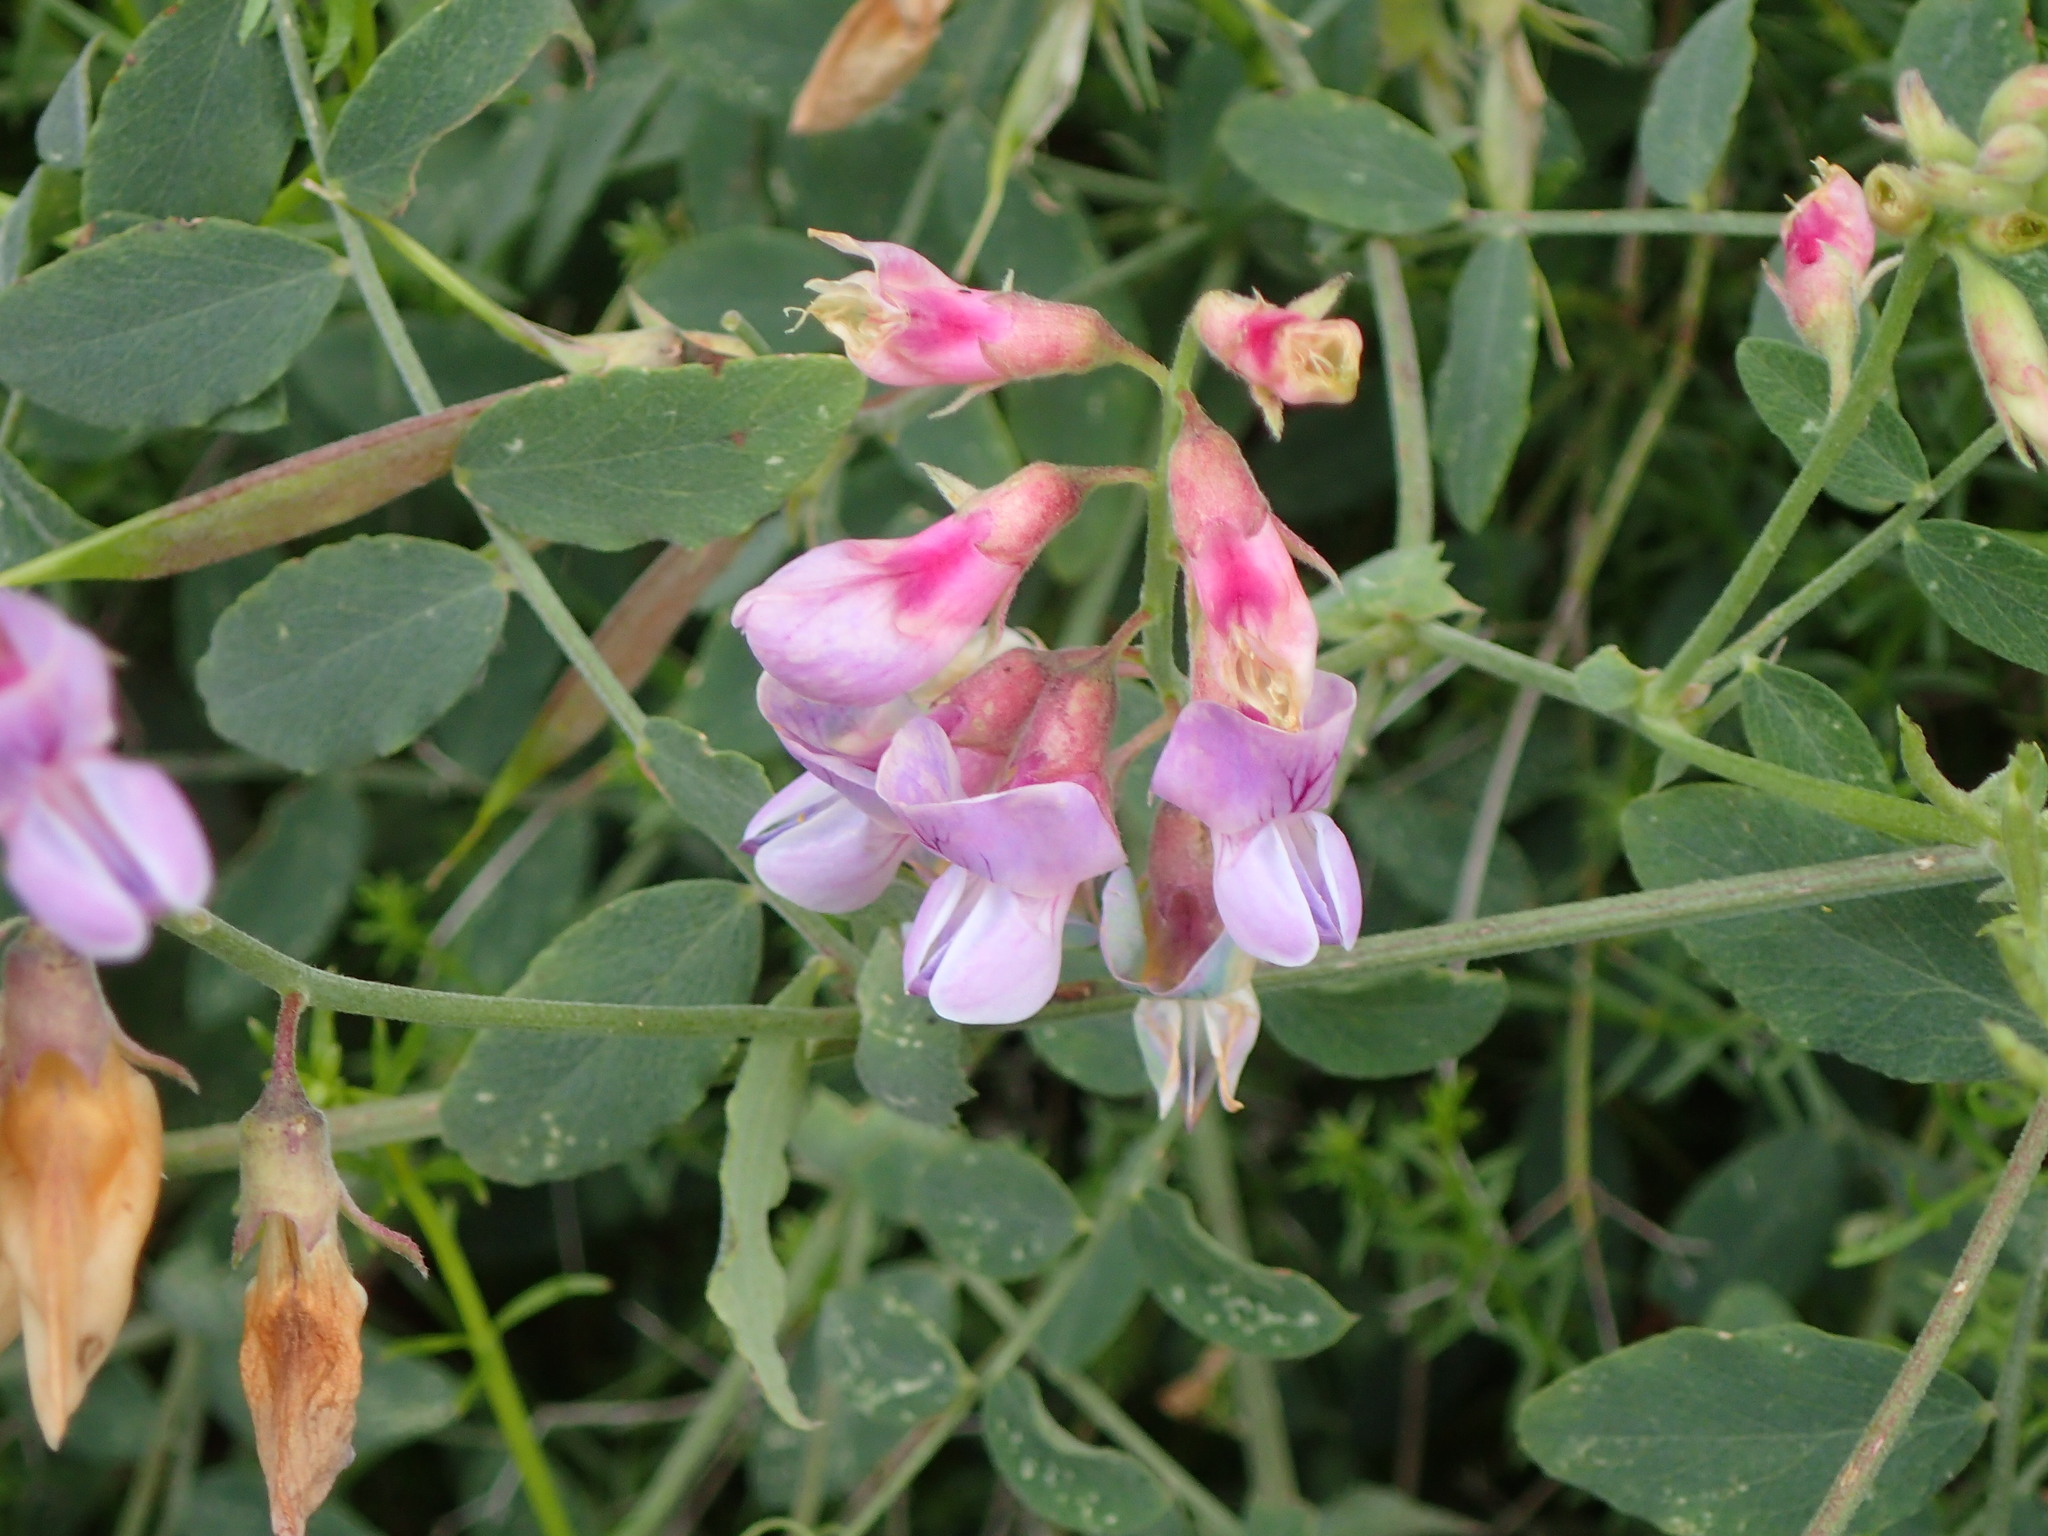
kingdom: Plantae
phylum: Tracheophyta
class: Magnoliopsida
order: Fabales
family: Fabaceae
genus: Lathyrus
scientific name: Lathyrus vestitus
